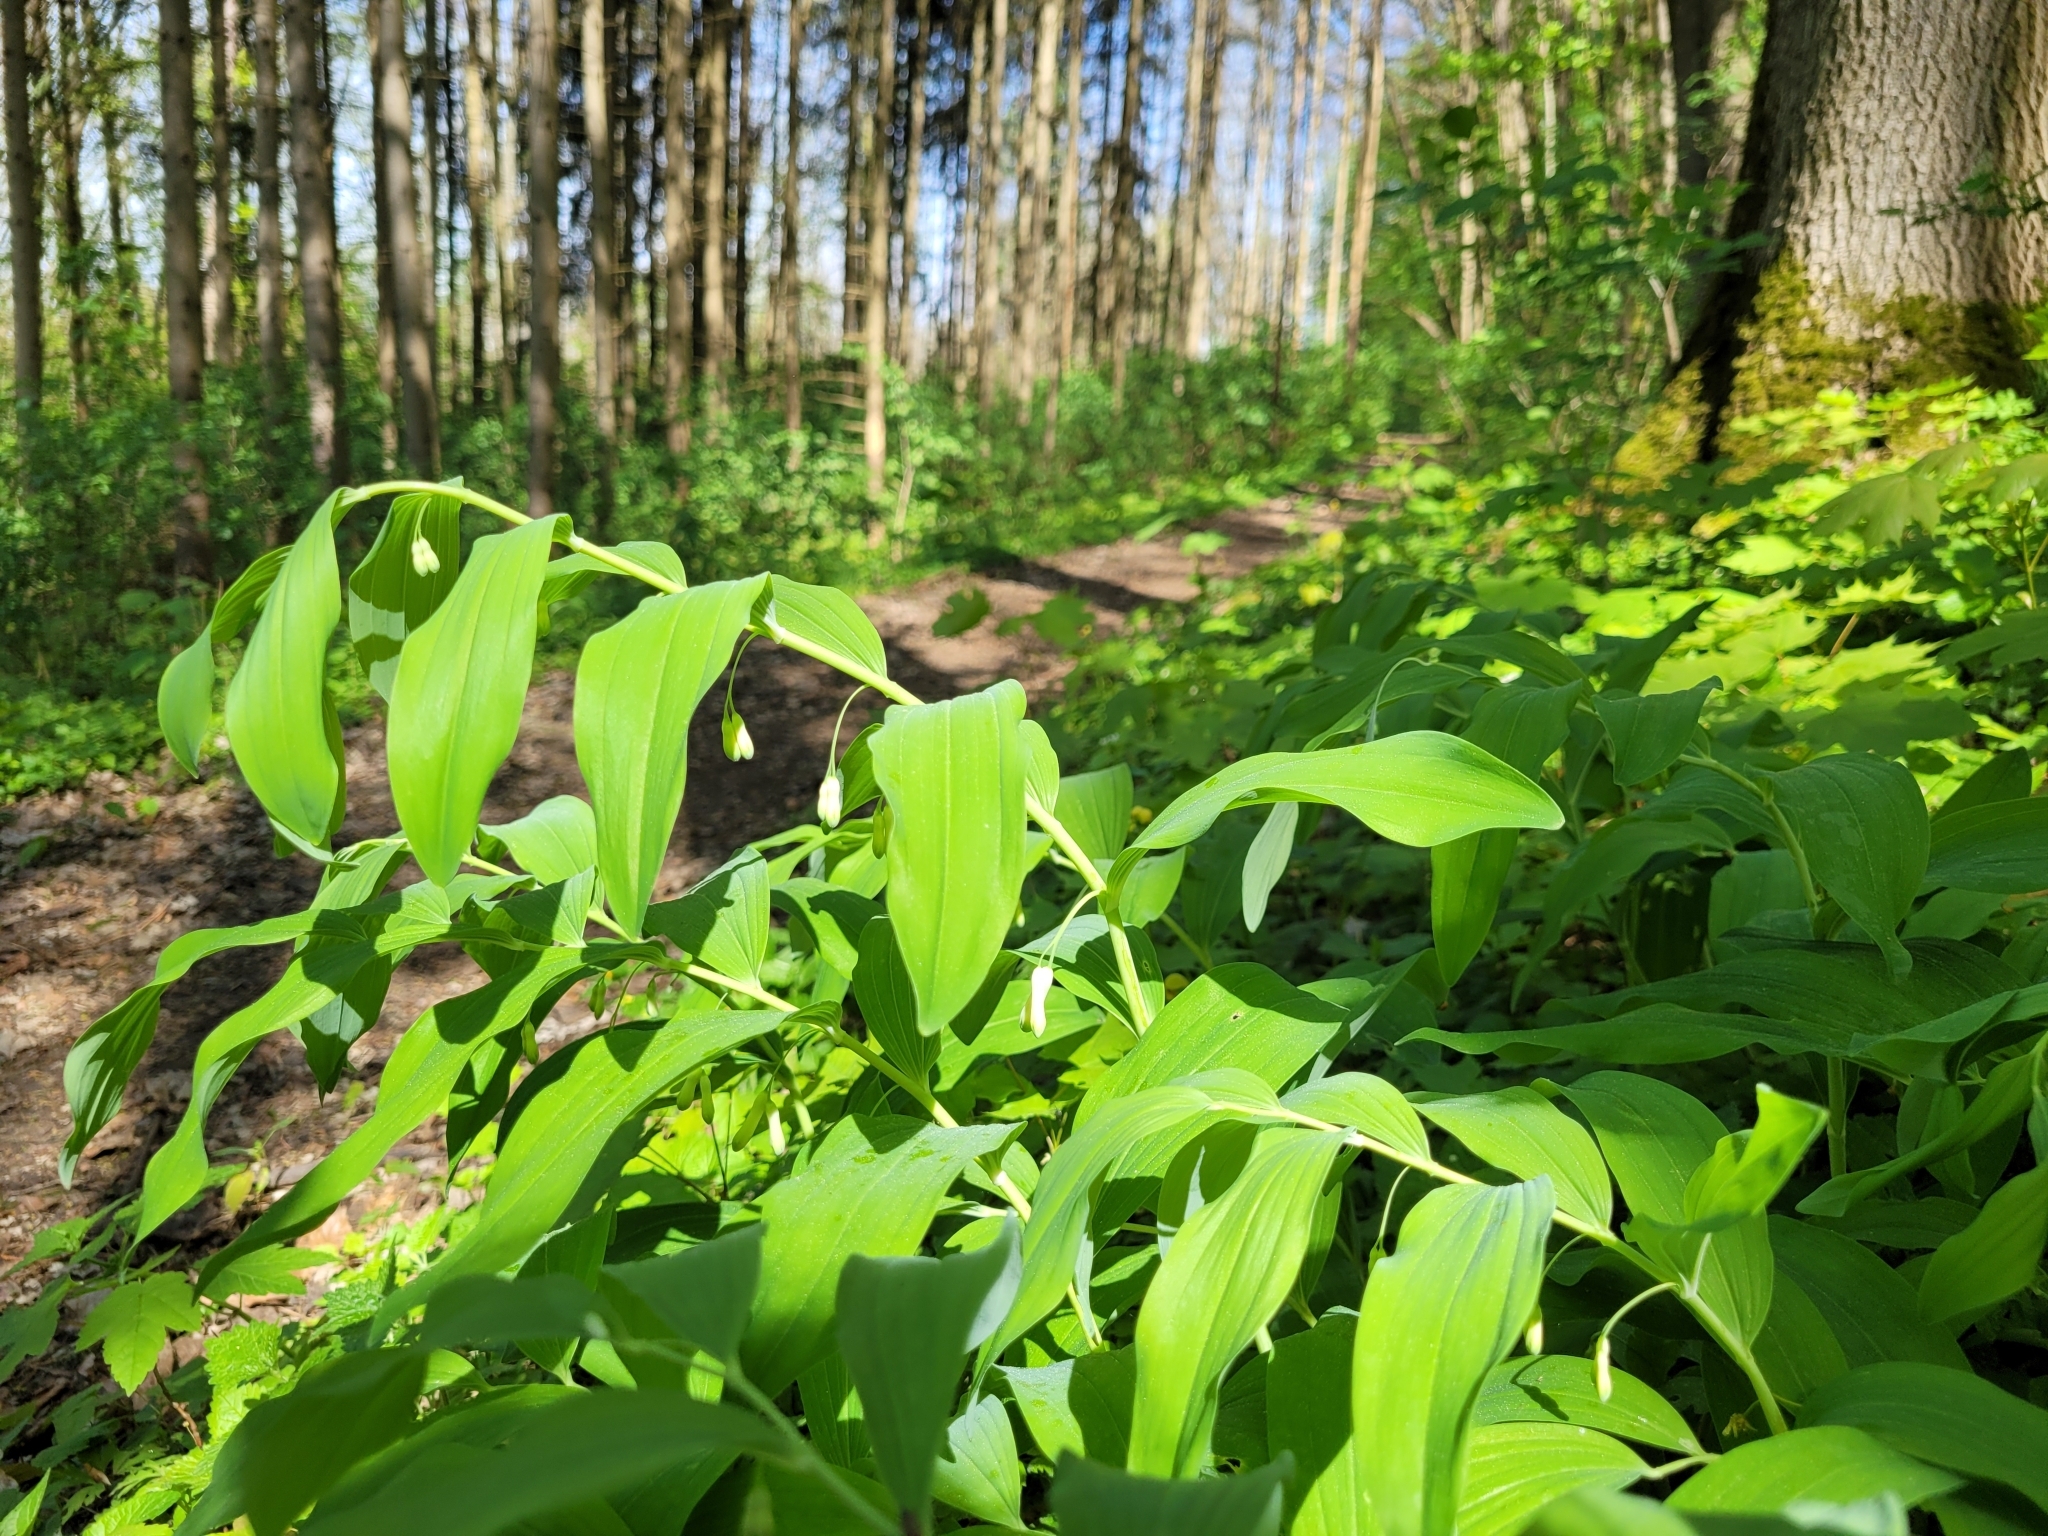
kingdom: Plantae
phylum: Tracheophyta
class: Liliopsida
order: Asparagales
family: Asparagaceae
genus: Polygonatum
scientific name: Polygonatum multiflorum
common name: Solomon's-seal
